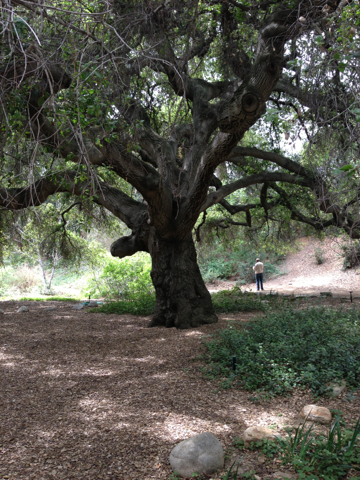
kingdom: Plantae
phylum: Tracheophyta
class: Magnoliopsida
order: Fagales
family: Fagaceae
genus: Quercus
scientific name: Quercus agrifolia
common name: California live oak
